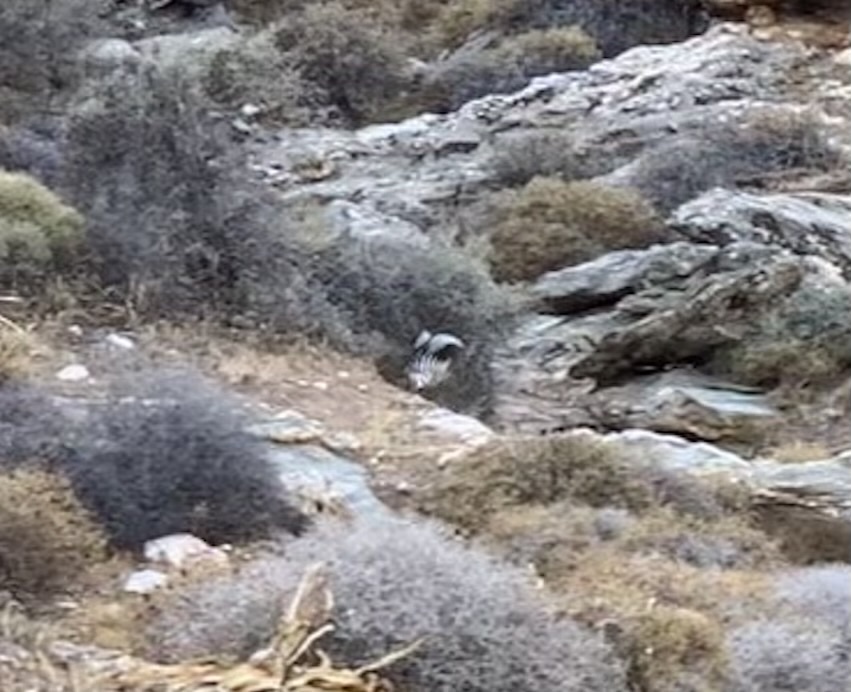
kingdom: Animalia
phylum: Chordata
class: Aves
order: Bucerotiformes
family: Upupidae
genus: Upupa
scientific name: Upupa epops
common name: Eurasian hoopoe
